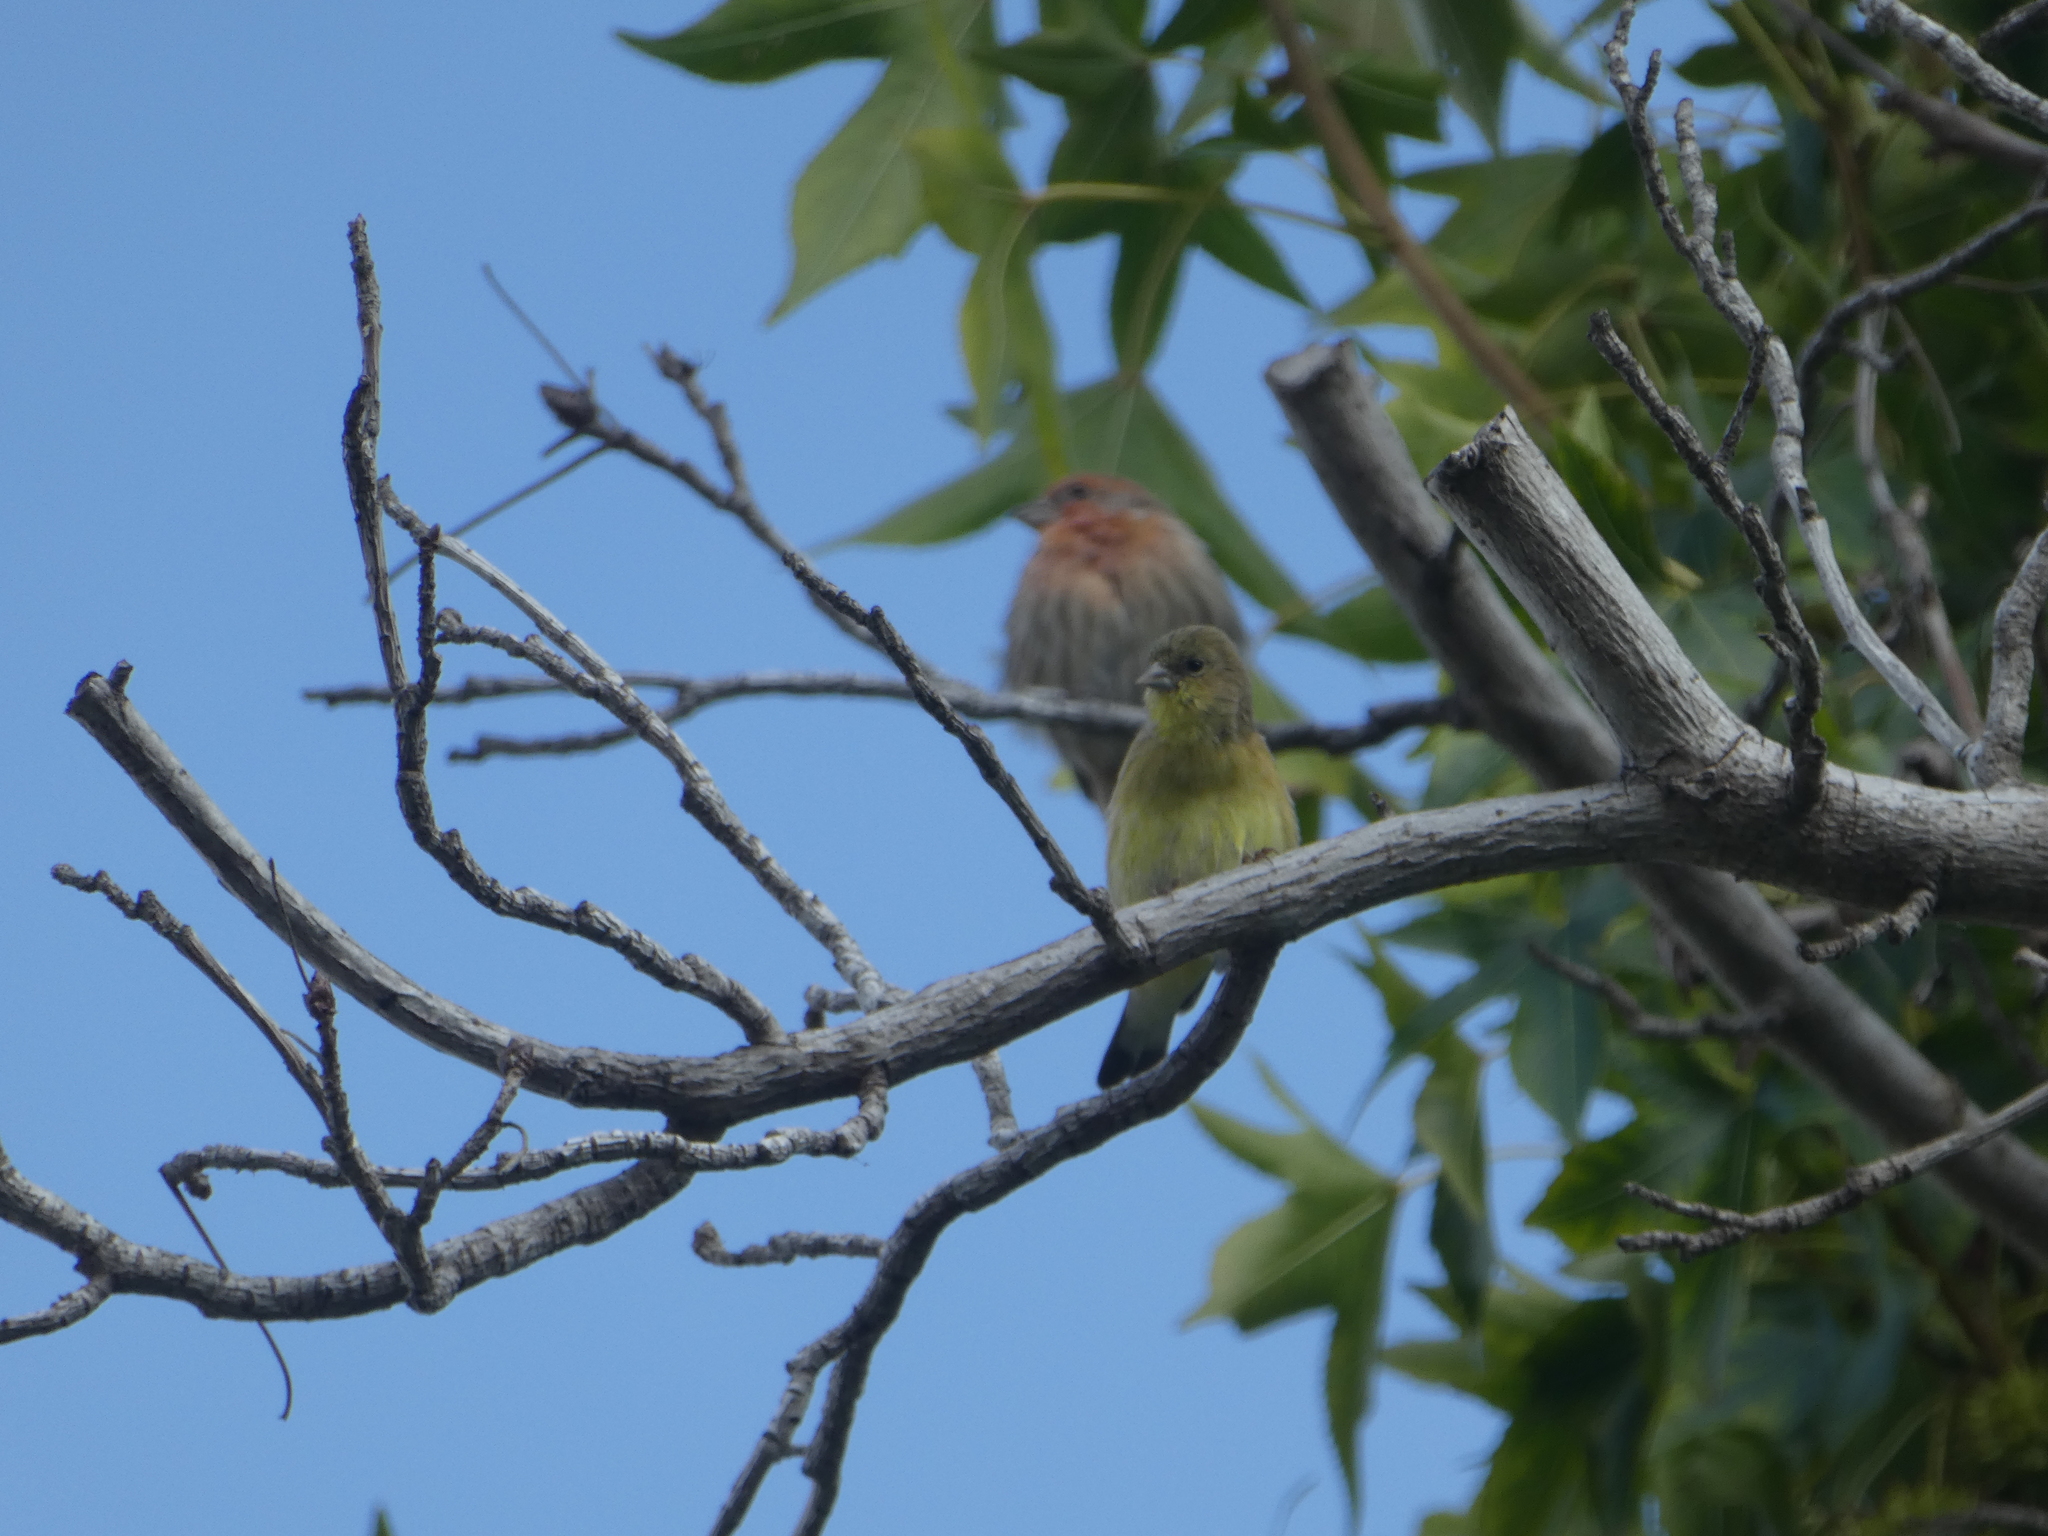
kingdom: Animalia
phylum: Chordata
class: Aves
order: Passeriformes
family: Fringillidae
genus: Spinus
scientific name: Spinus psaltria
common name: Lesser goldfinch
